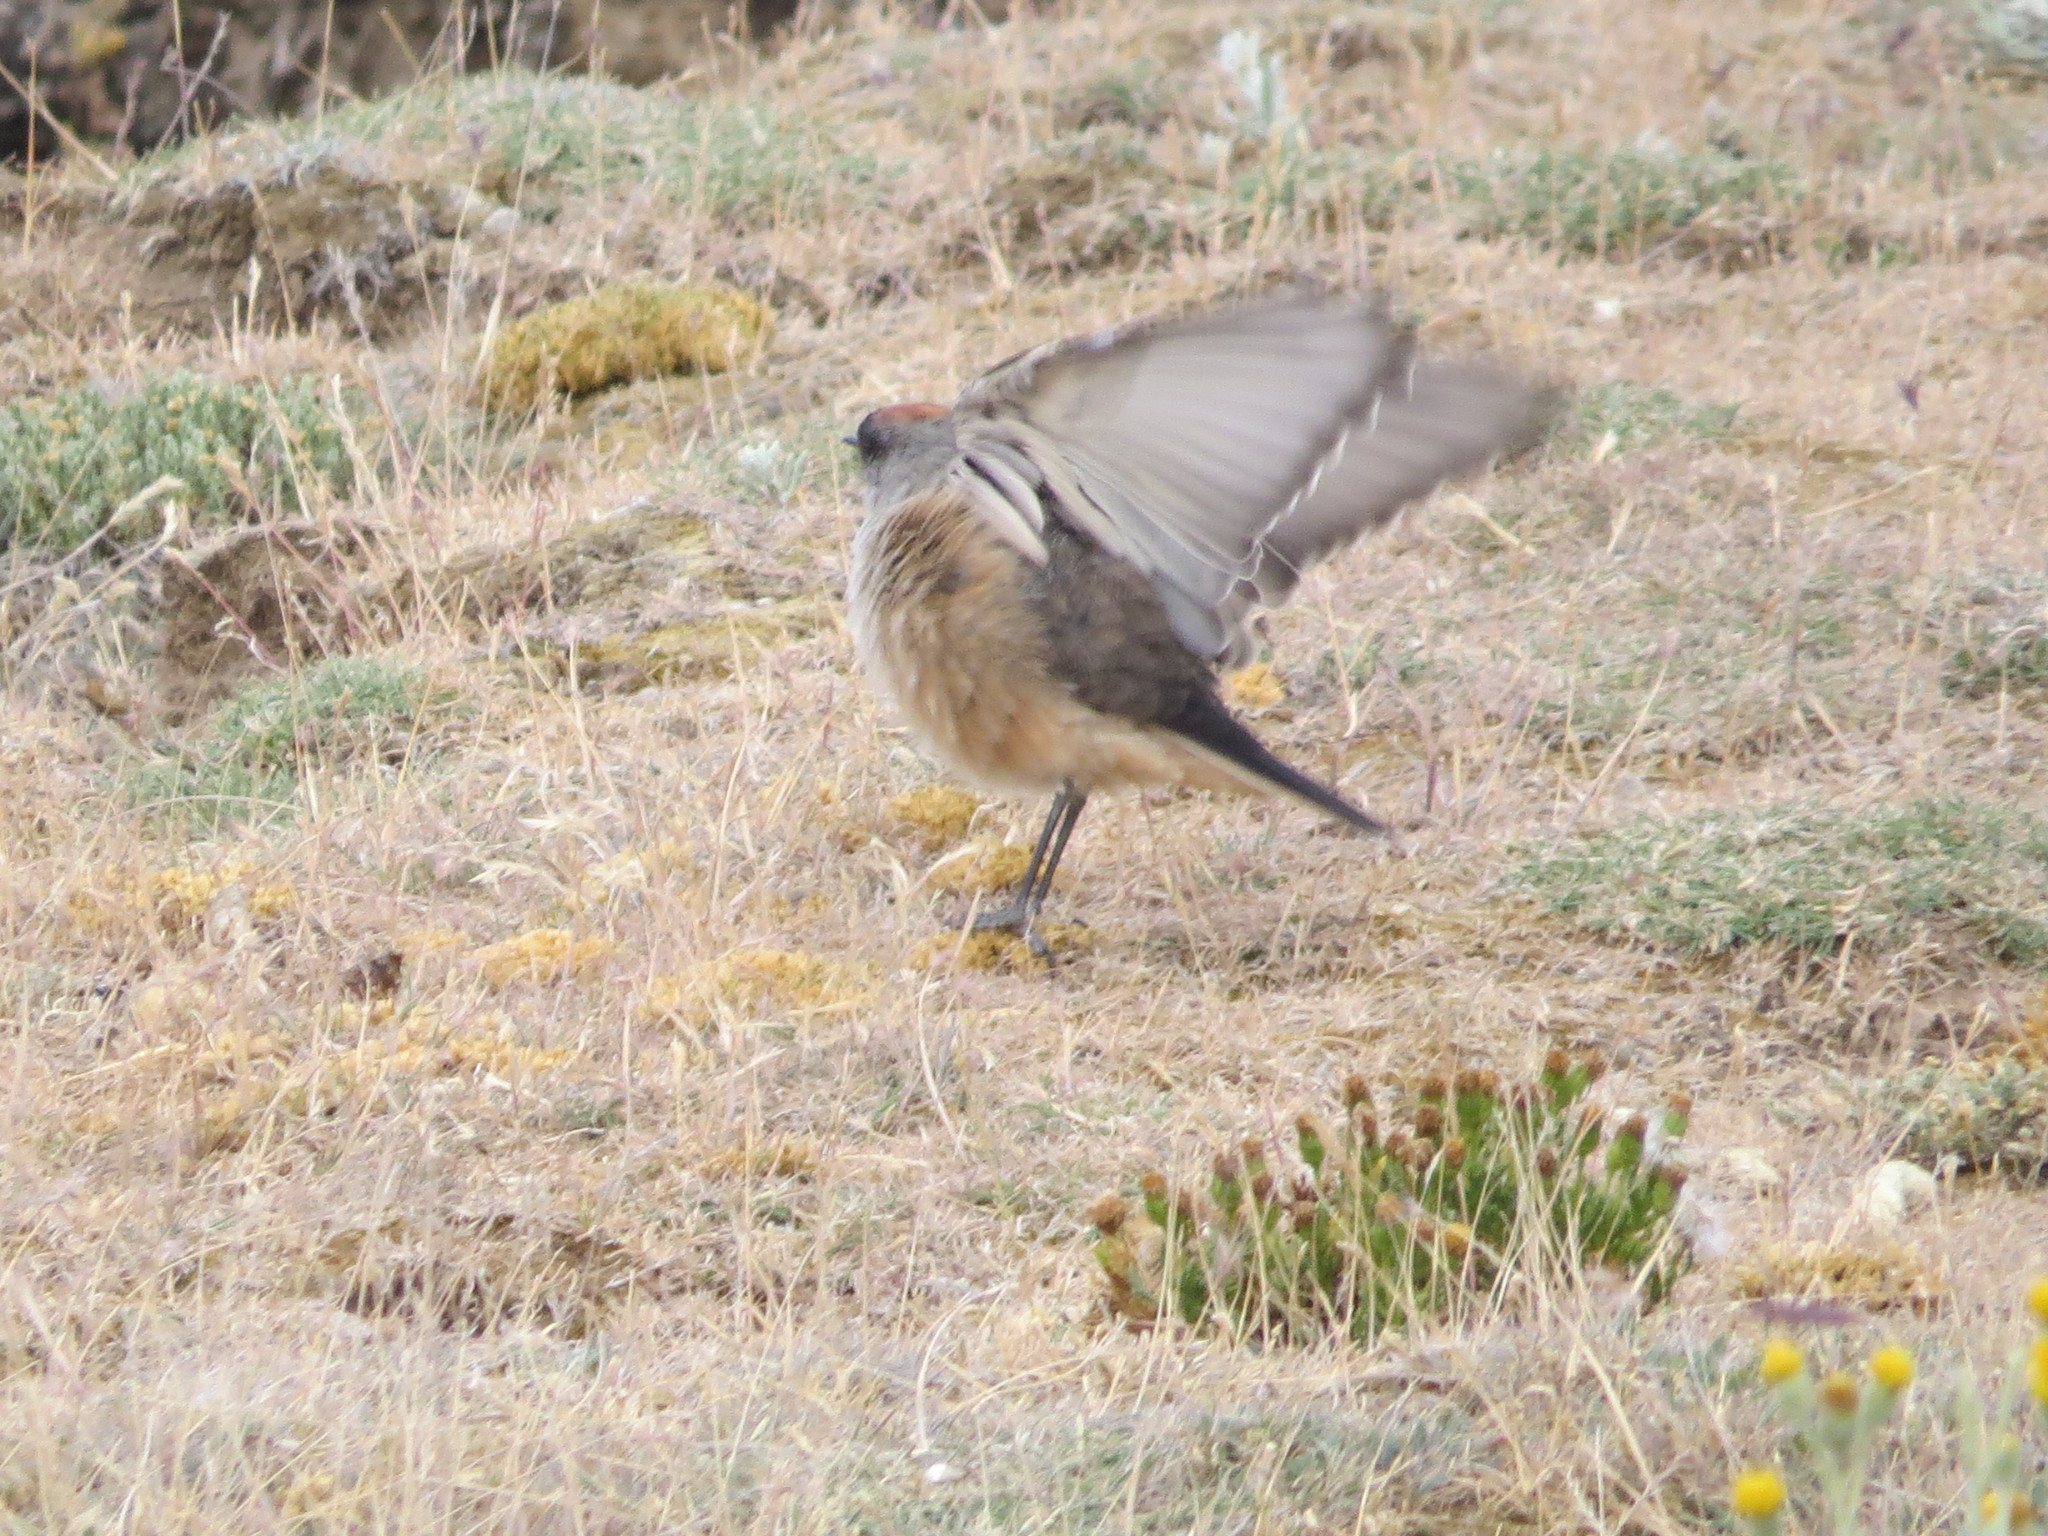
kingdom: Animalia
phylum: Chordata
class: Aves
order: Passeriformes
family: Tyrannidae
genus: Muscisaxicola
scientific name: Muscisaxicola capistratus
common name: Cinnamon-bellied ground tyrant
